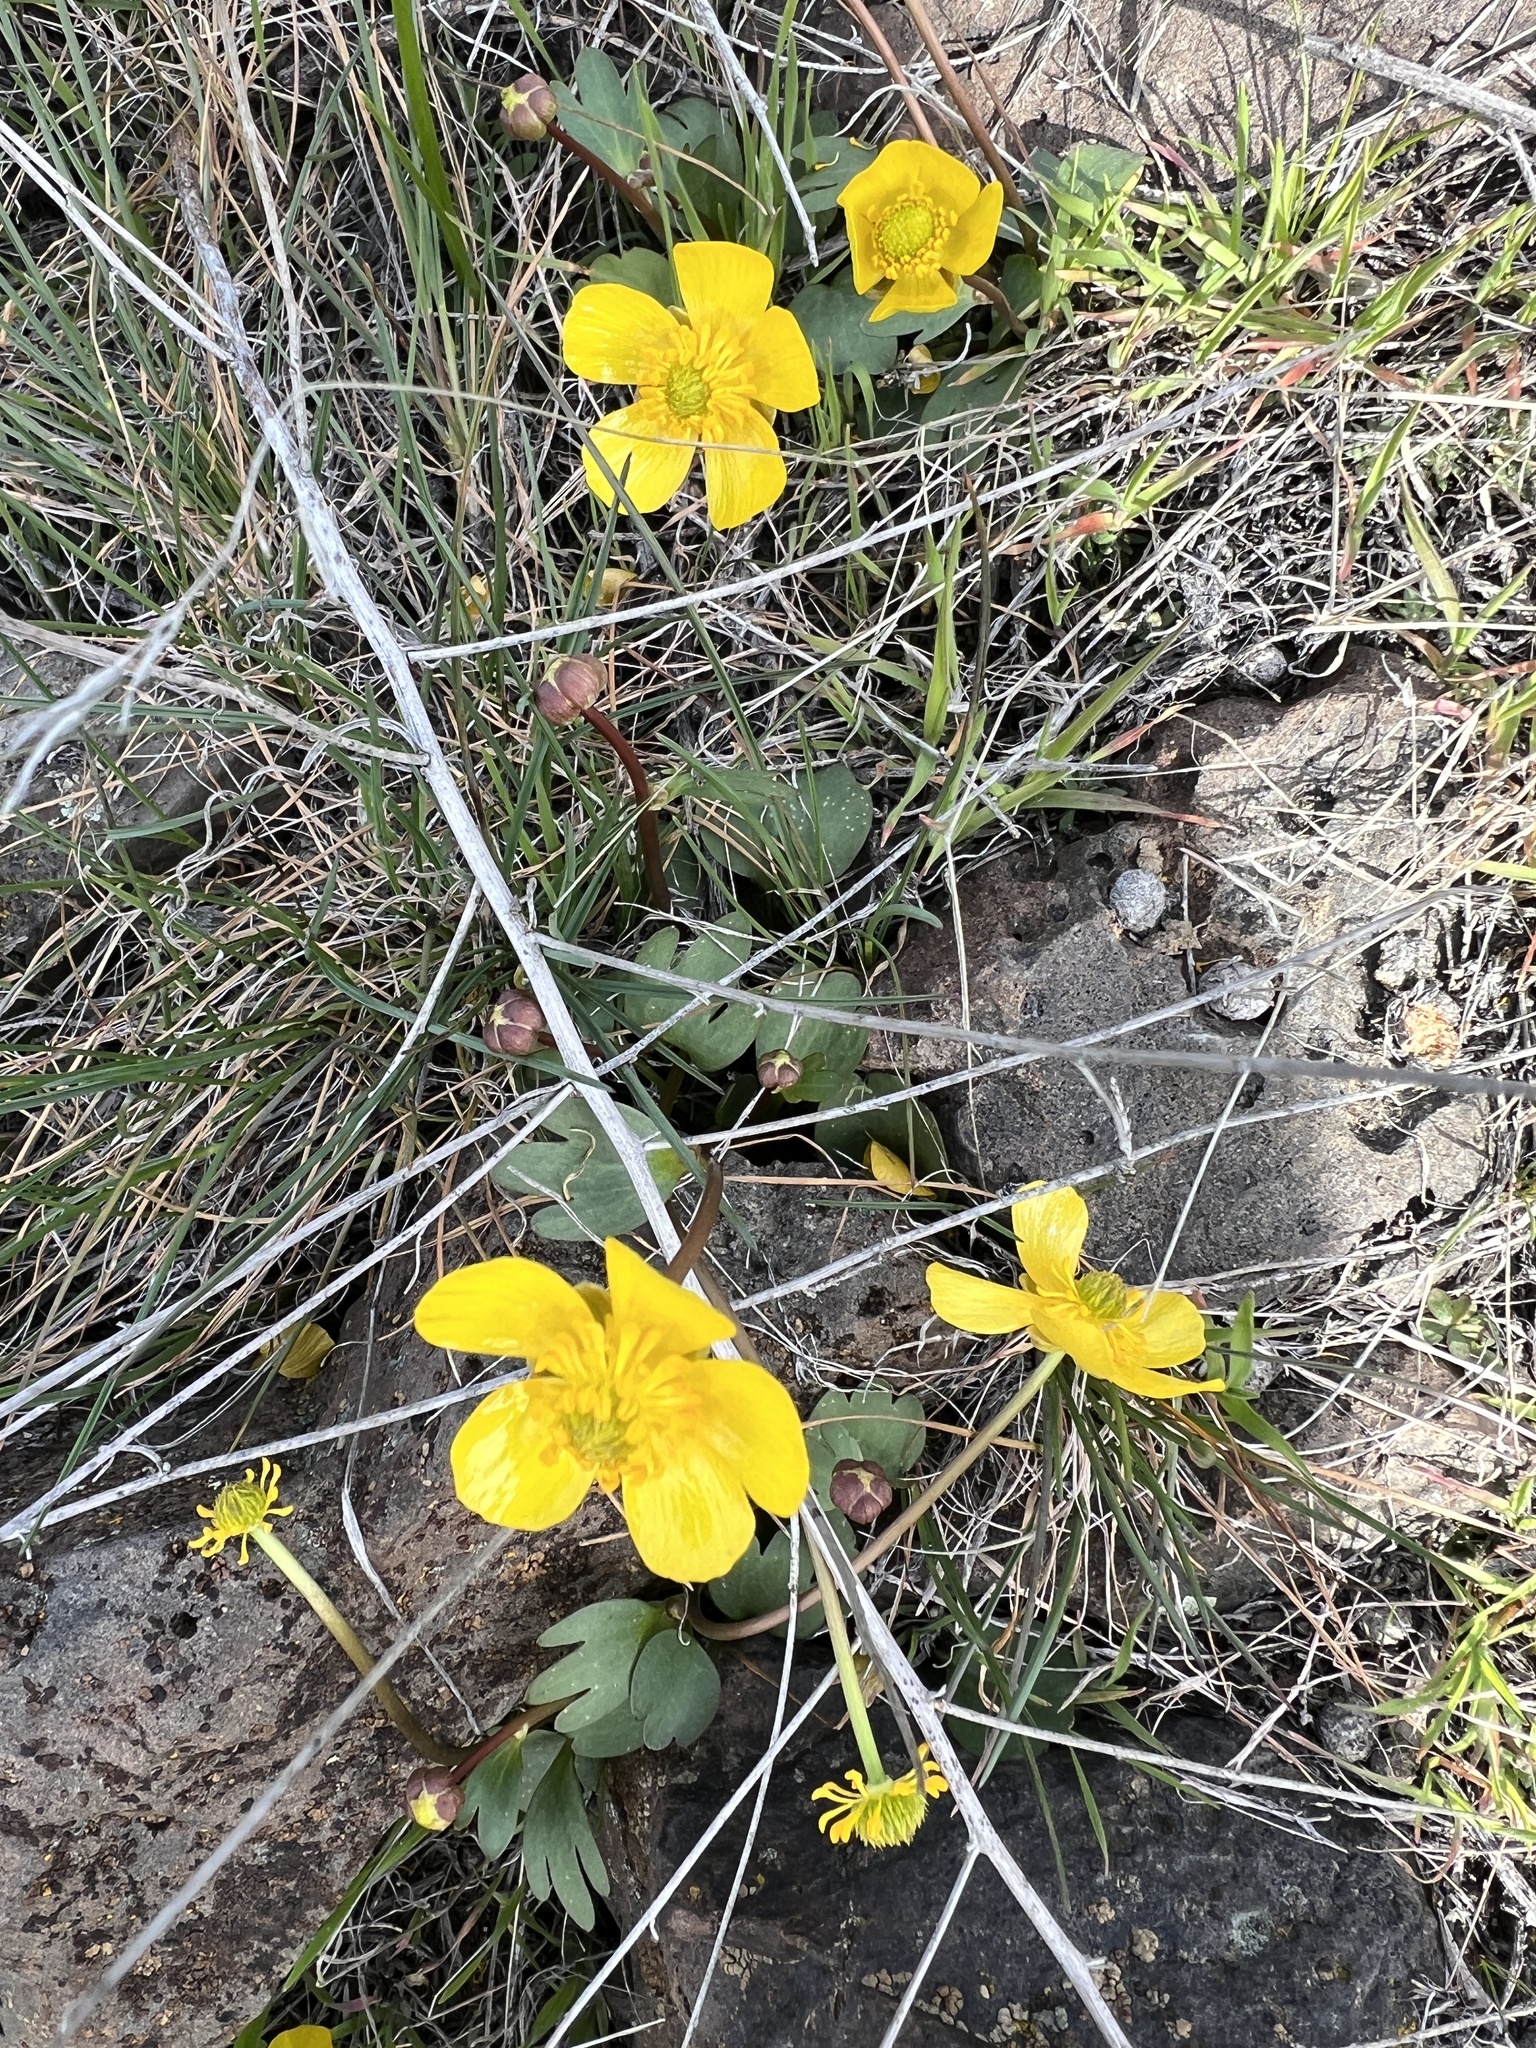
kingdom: Plantae
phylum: Tracheophyta
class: Magnoliopsida
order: Ranunculales
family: Ranunculaceae
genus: Ranunculus
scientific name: Ranunculus glaberrimus
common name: Sagebrush buttercup
